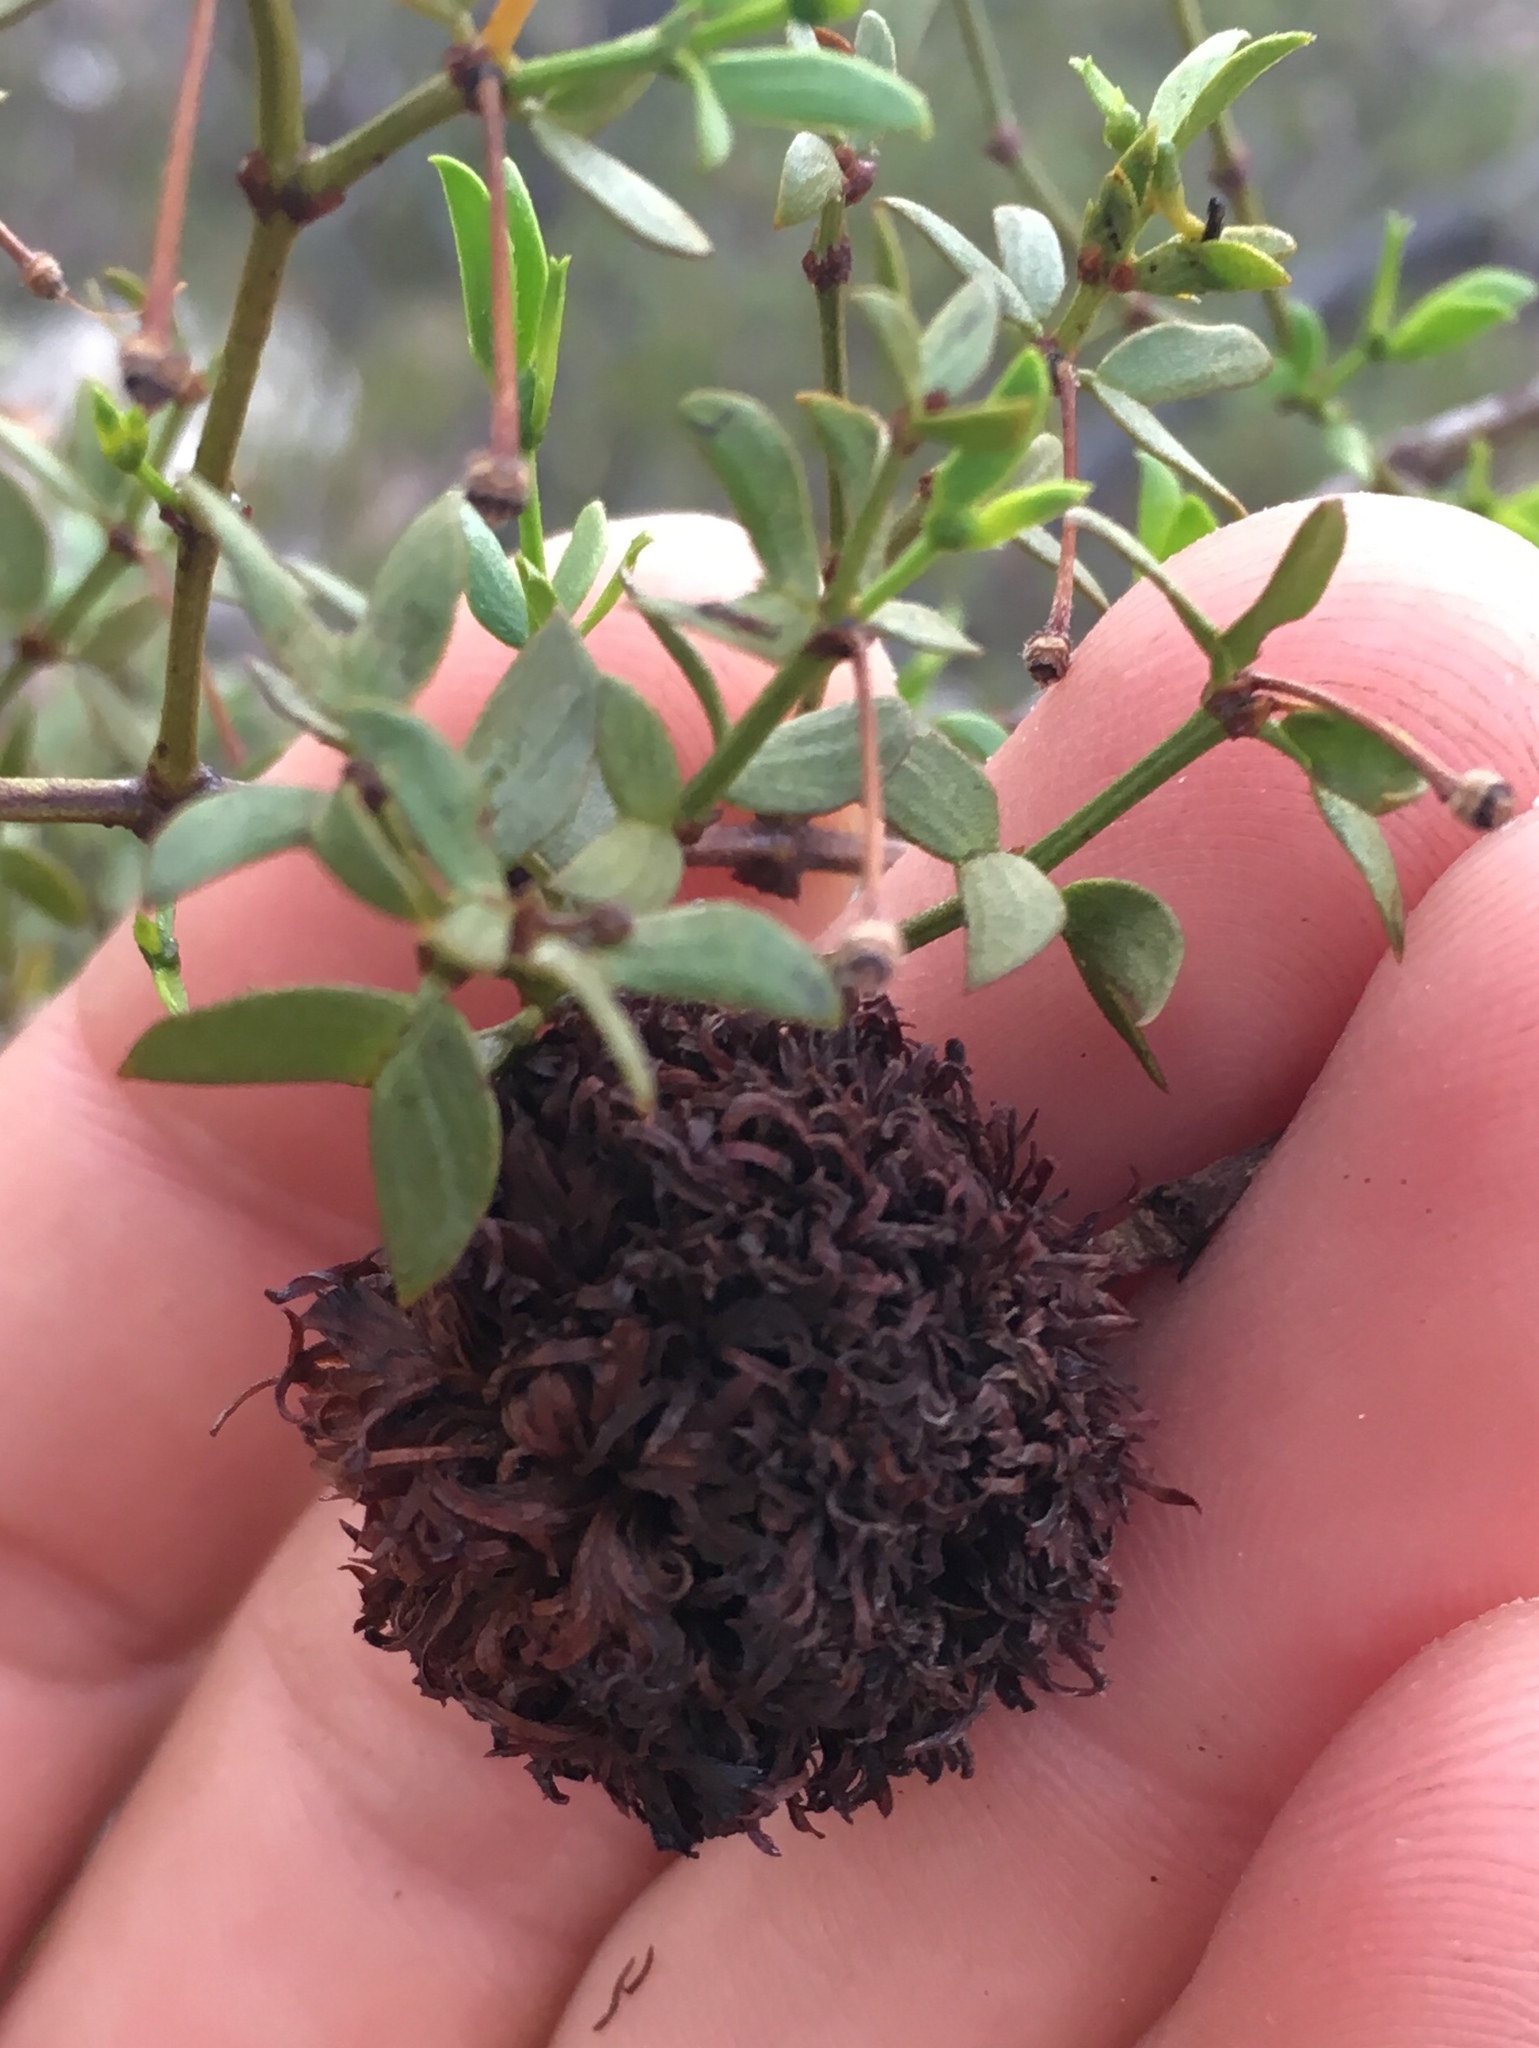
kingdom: Animalia
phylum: Arthropoda
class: Insecta
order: Diptera
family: Cecidomyiidae
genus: Asphondylia
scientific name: Asphondylia auripila
